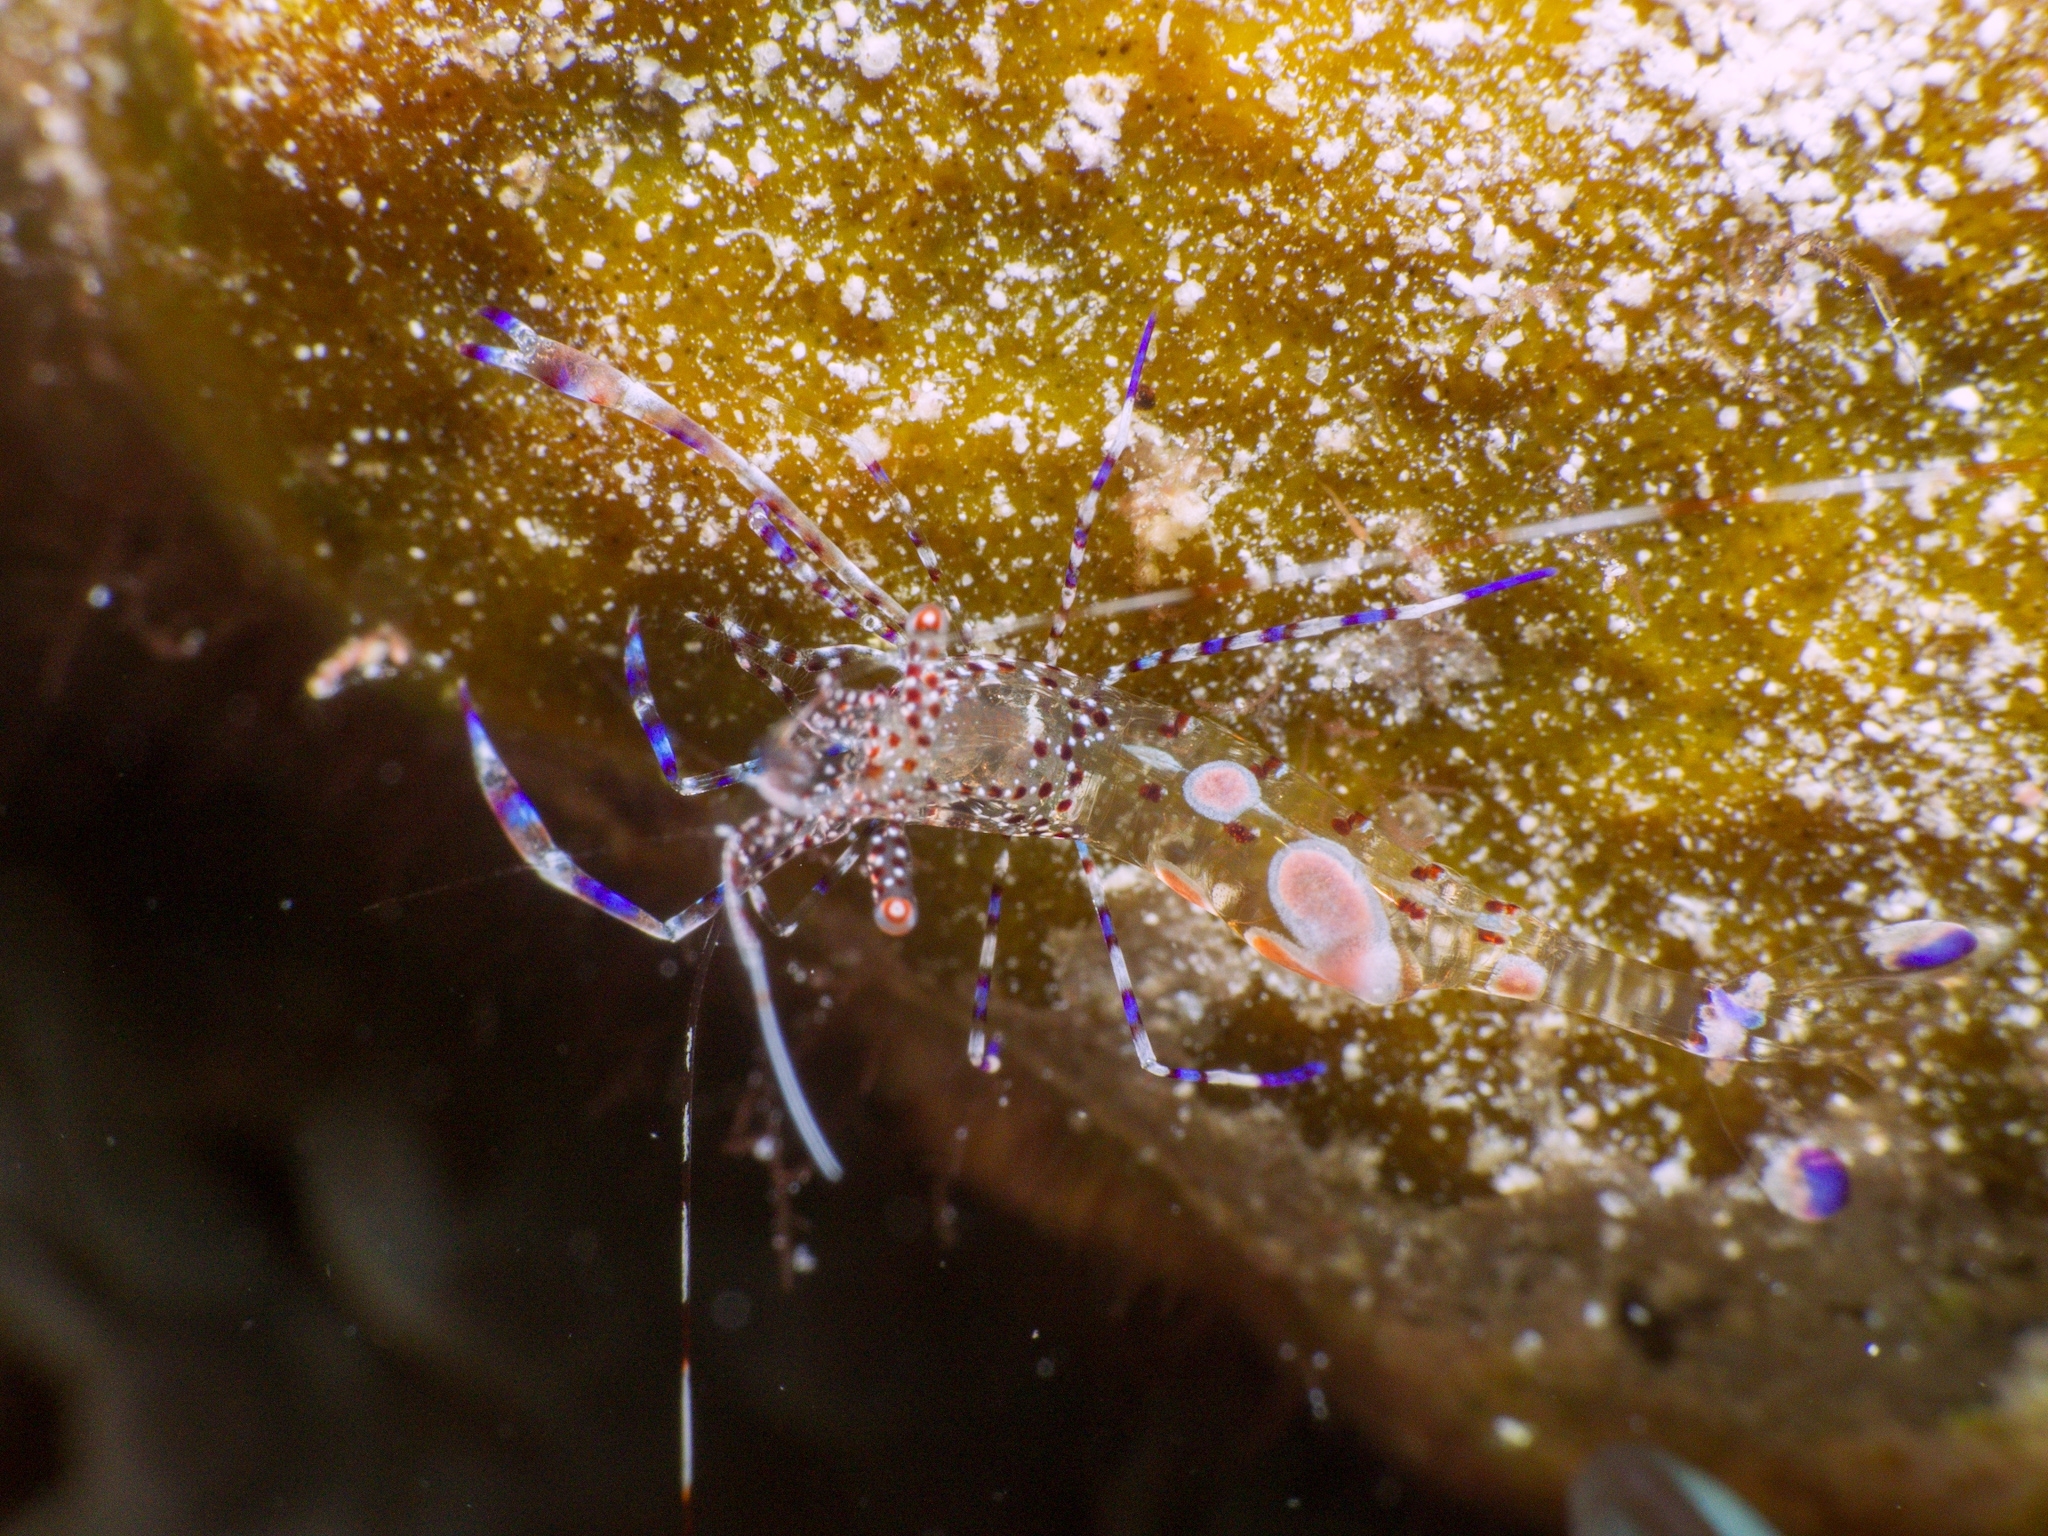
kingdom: Animalia
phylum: Arthropoda
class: Malacostraca
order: Decapoda
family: Palaemonidae
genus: Periclimenes
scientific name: Periclimenes yucatanicus
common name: Spotted cleaning shrimp
